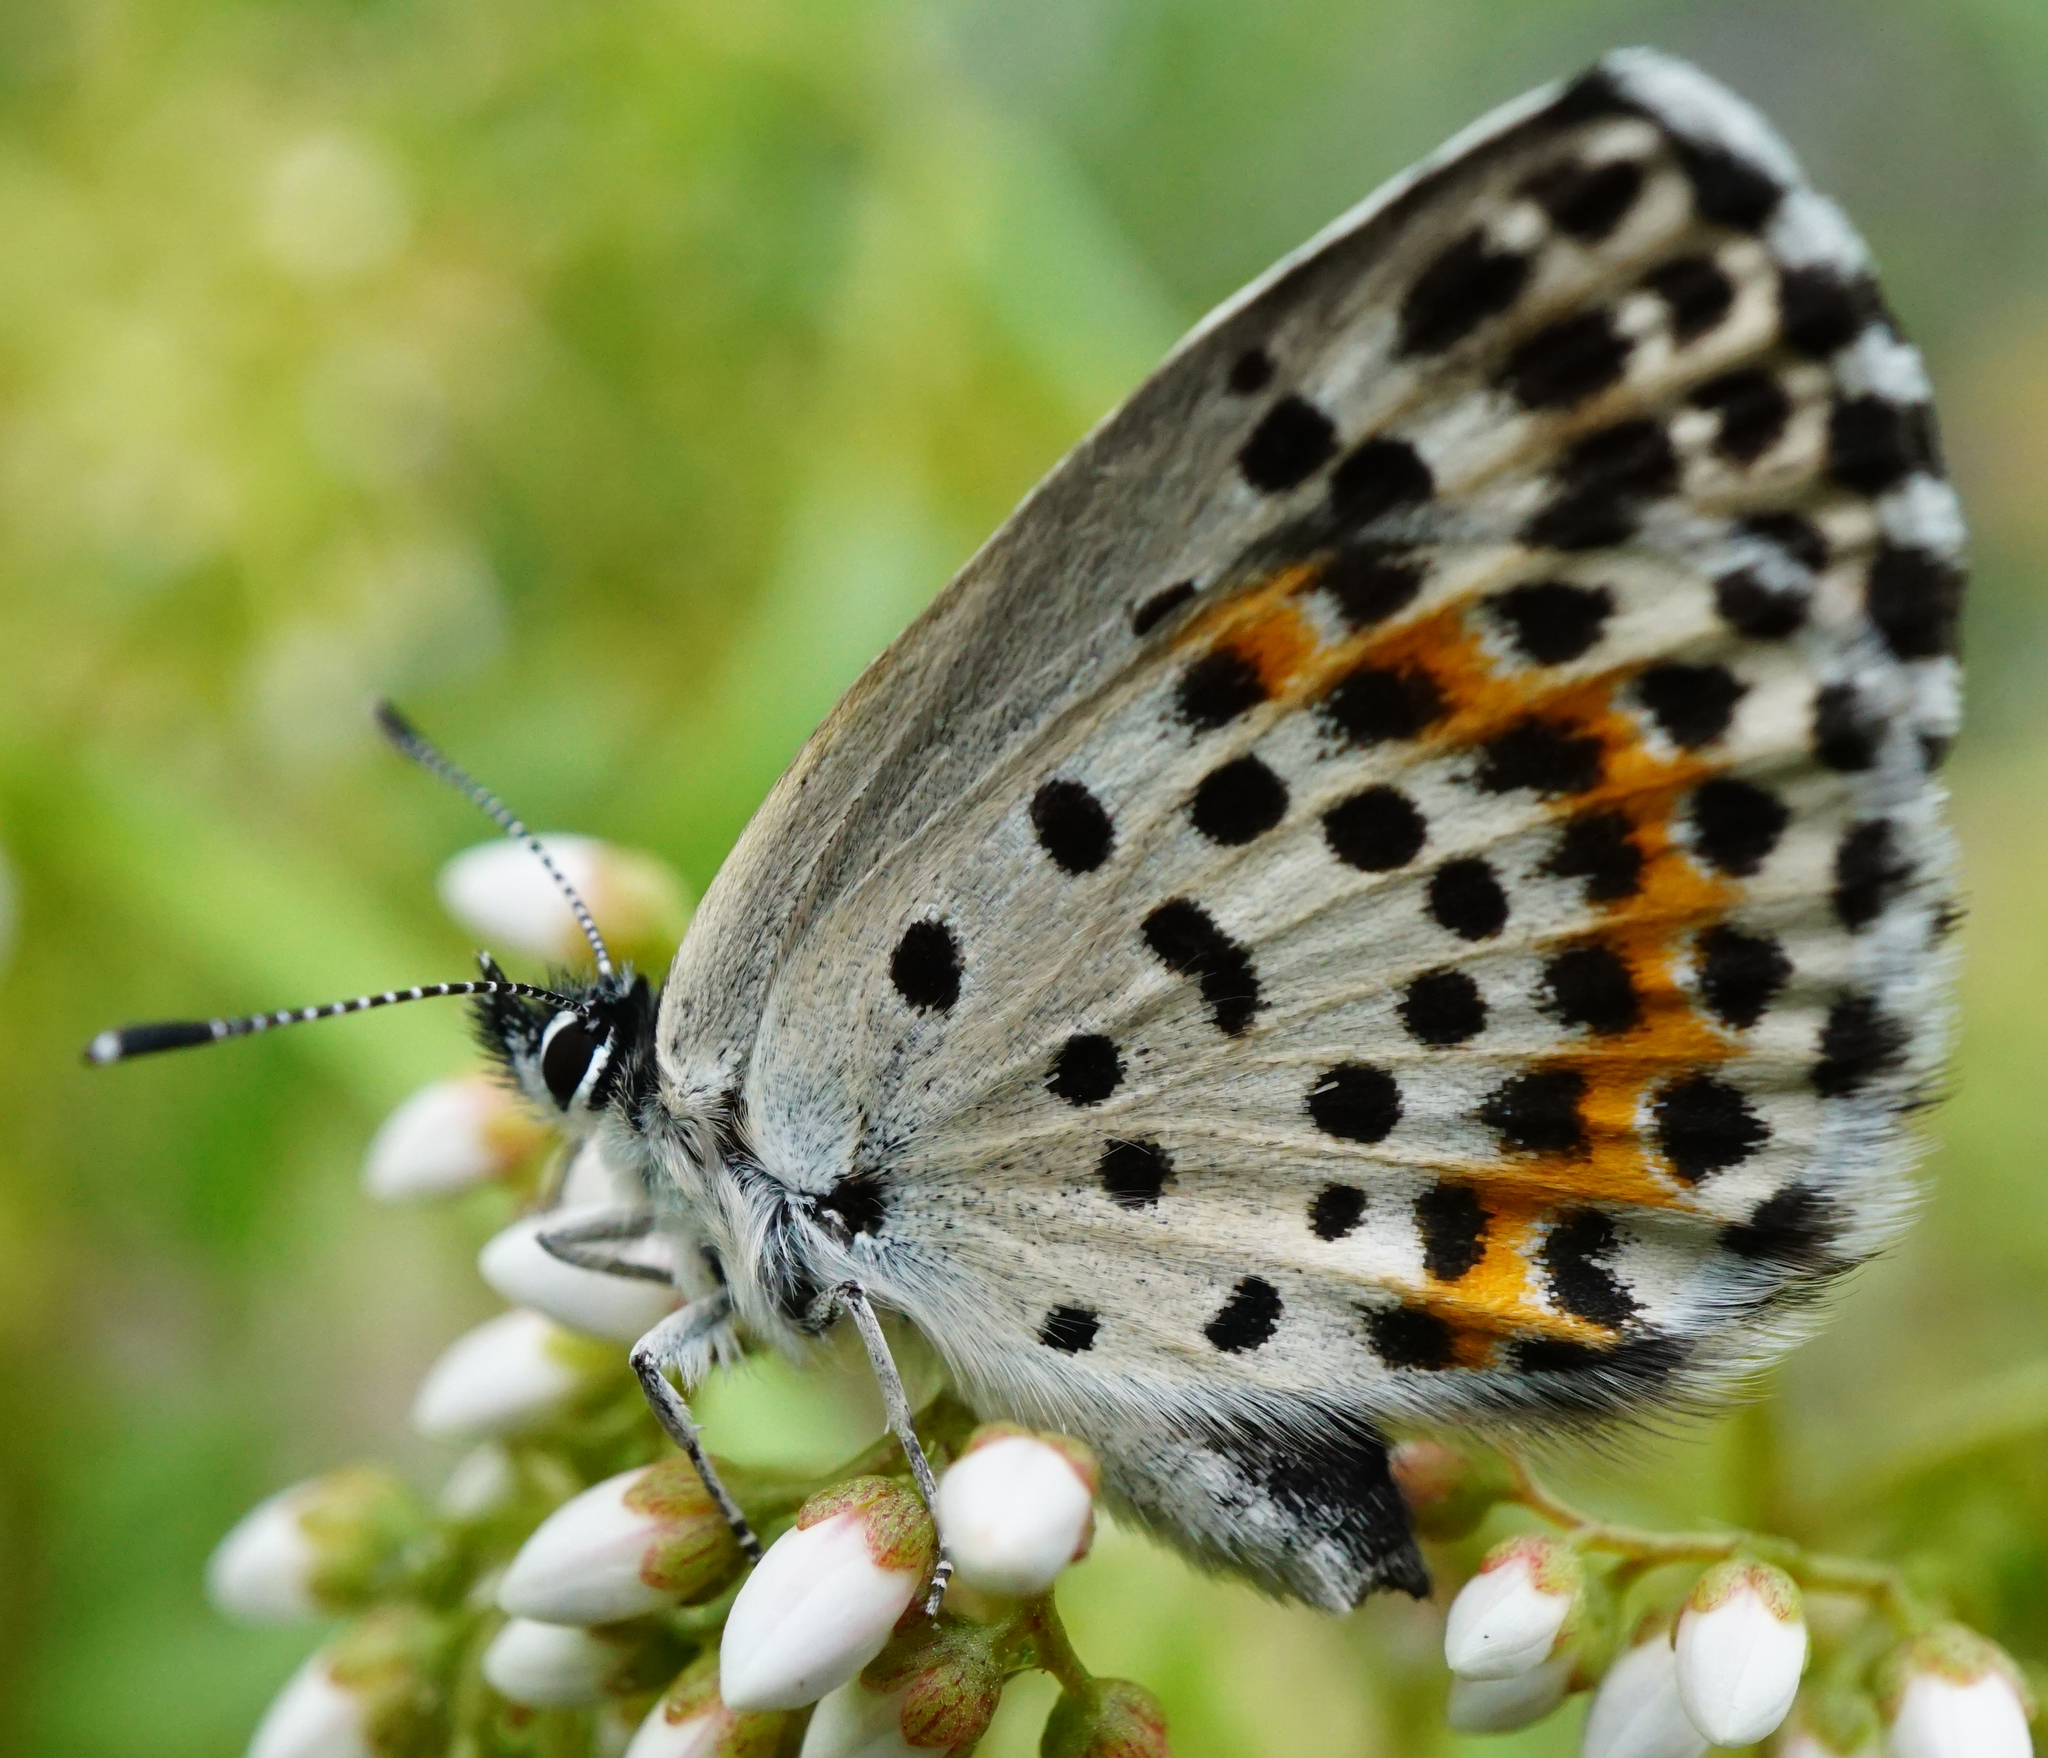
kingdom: Animalia
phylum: Arthropoda
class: Insecta
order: Lepidoptera
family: Lycaenidae
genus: Scolitantides
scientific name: Scolitantides orion
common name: Chequered blue
